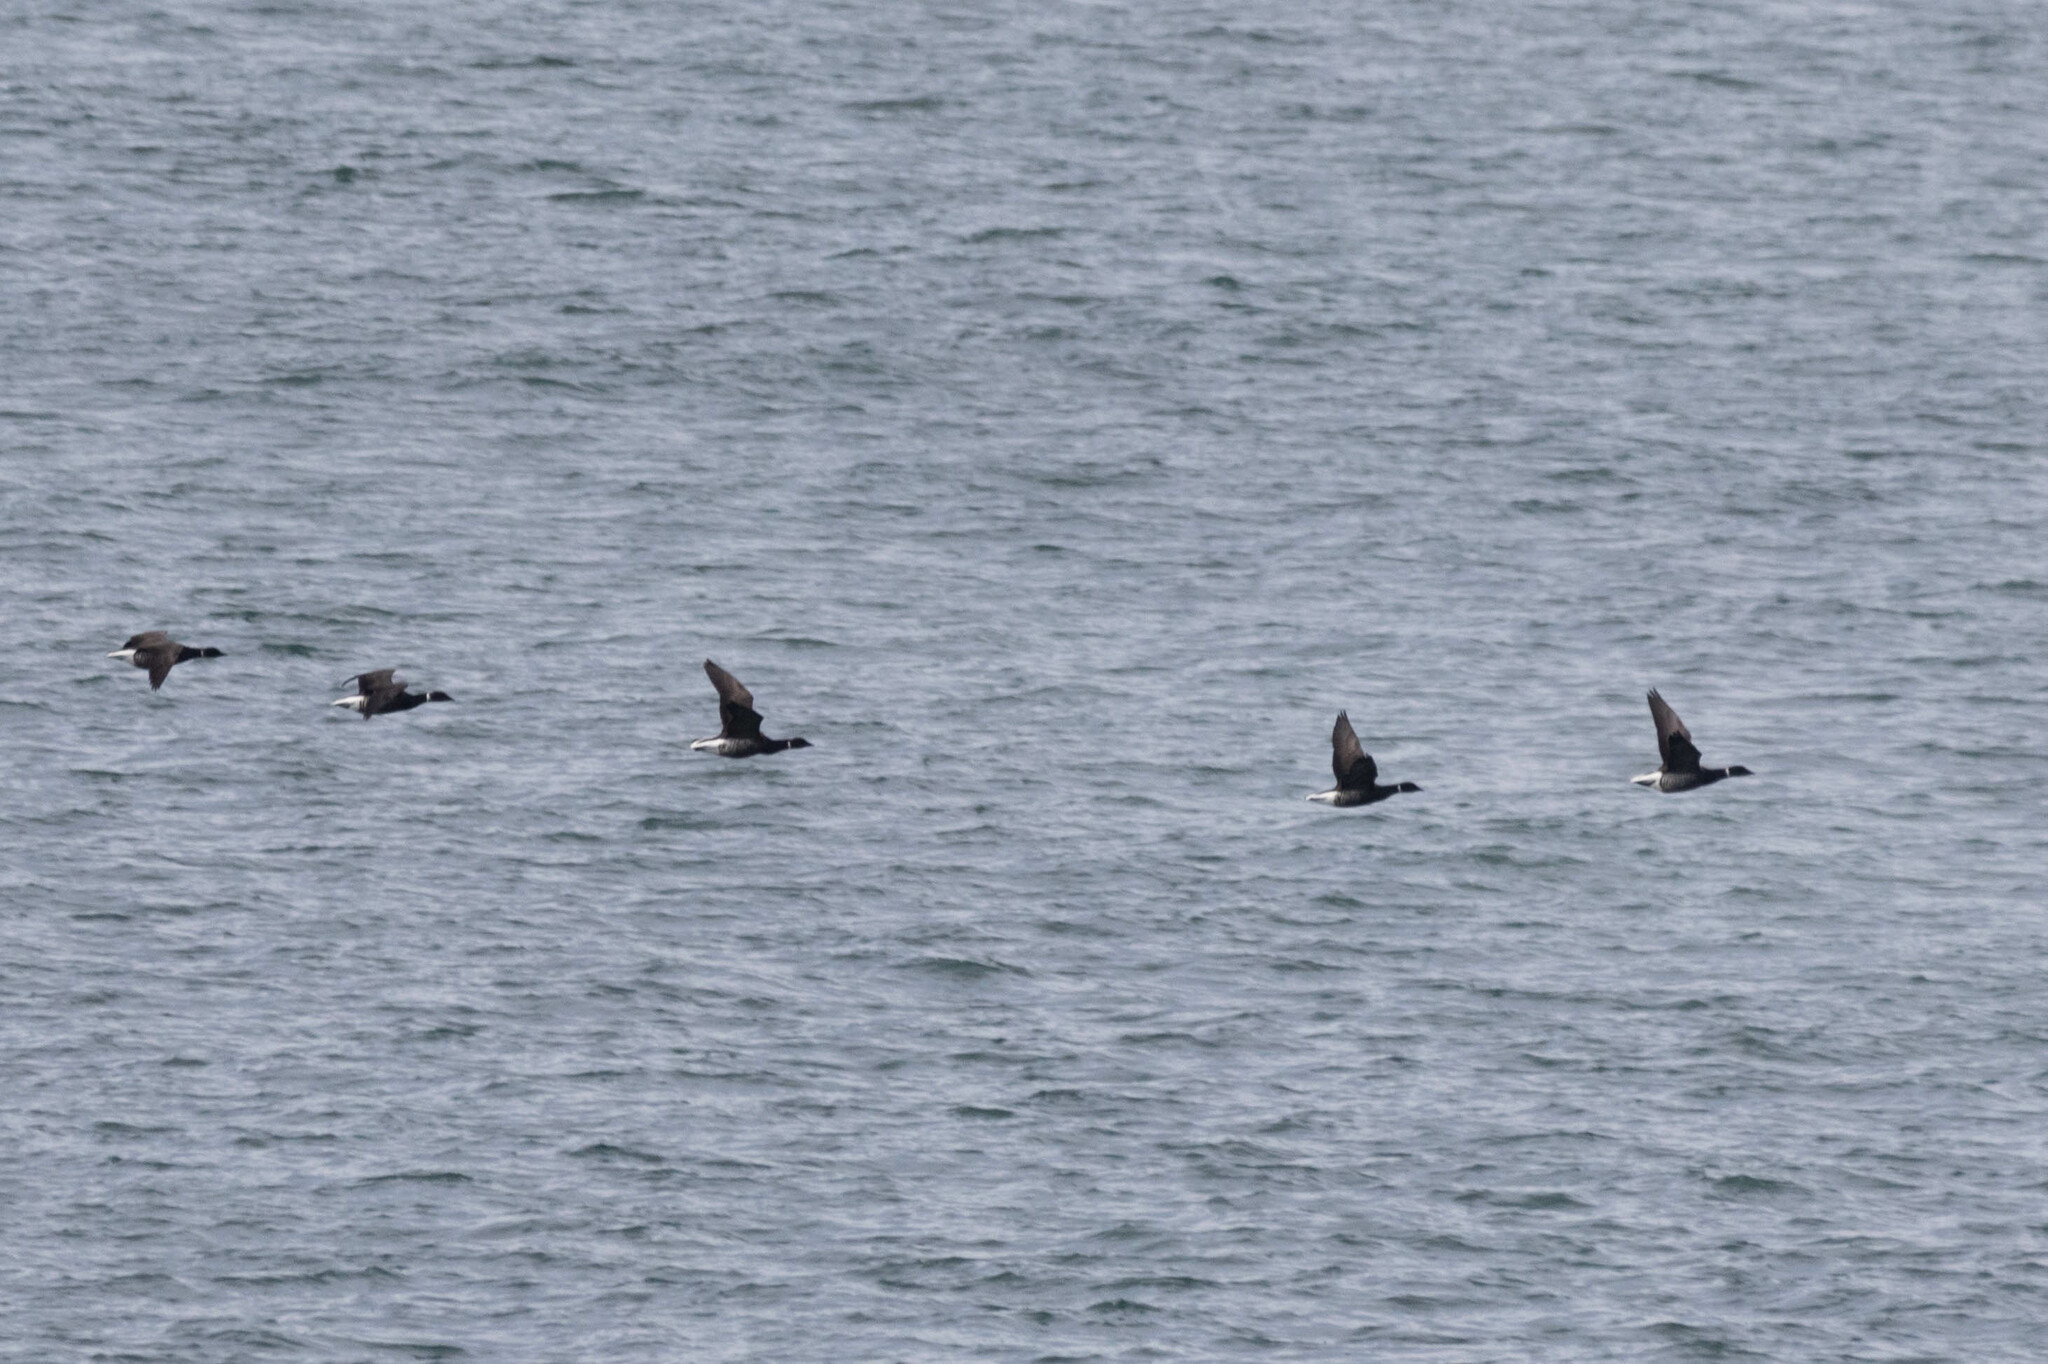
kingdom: Animalia
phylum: Chordata
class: Aves
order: Anseriformes
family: Anatidae
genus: Branta
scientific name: Branta bernicla
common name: Brant goose
